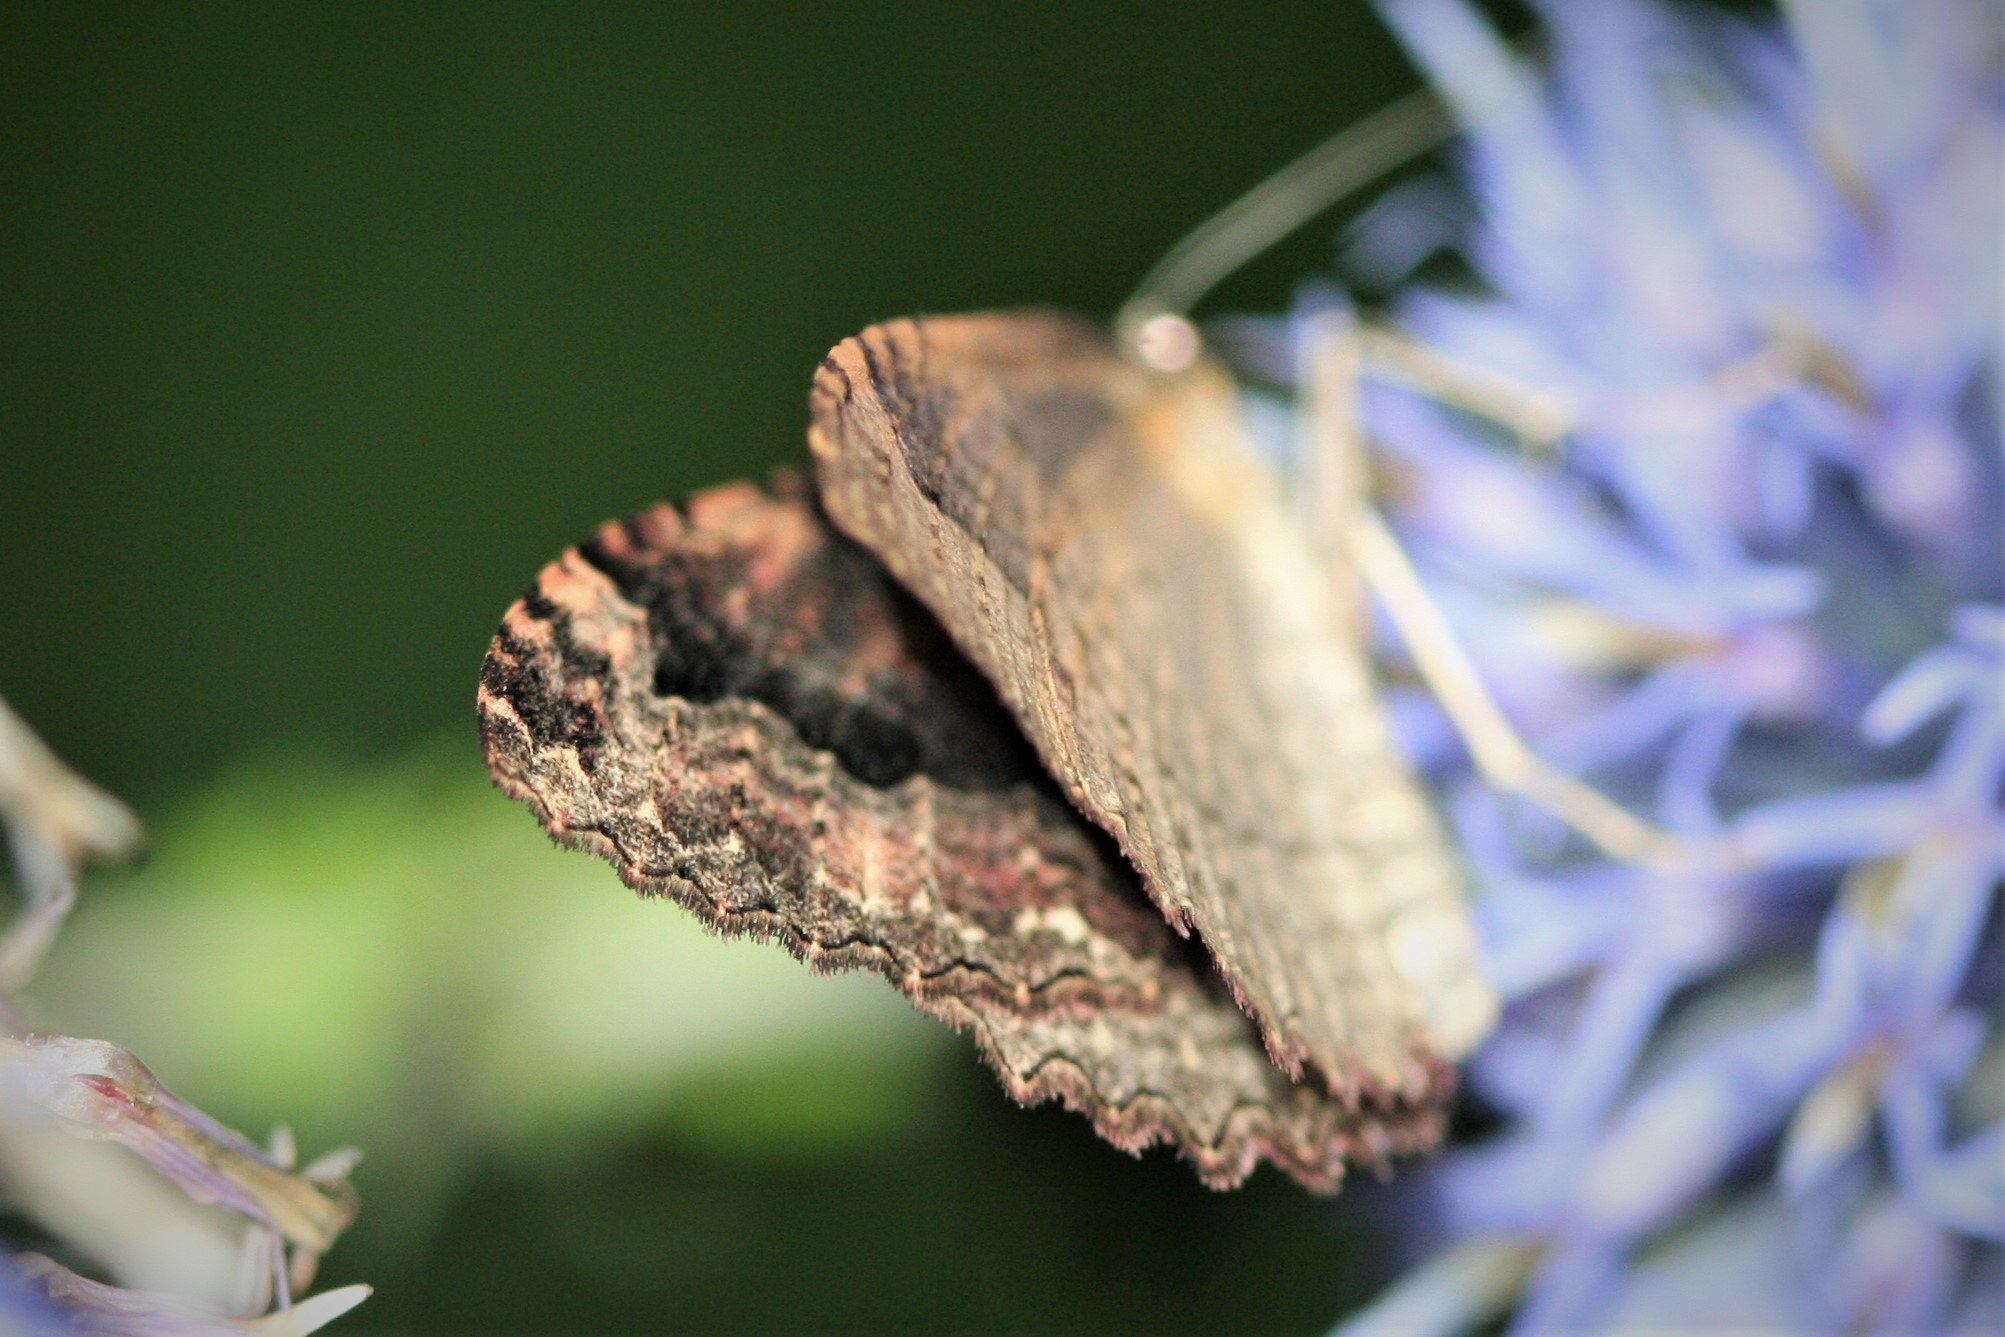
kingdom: Animalia
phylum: Arthropoda
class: Insecta
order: Lepidoptera
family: Geometridae
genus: Triphosa
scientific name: Triphosa dubitata
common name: Tissue
